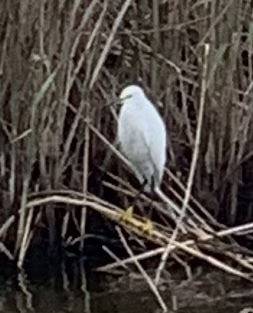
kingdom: Animalia
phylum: Chordata
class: Aves
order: Pelecaniformes
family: Ardeidae
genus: Egretta
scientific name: Egretta thula
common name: Snowy egret
